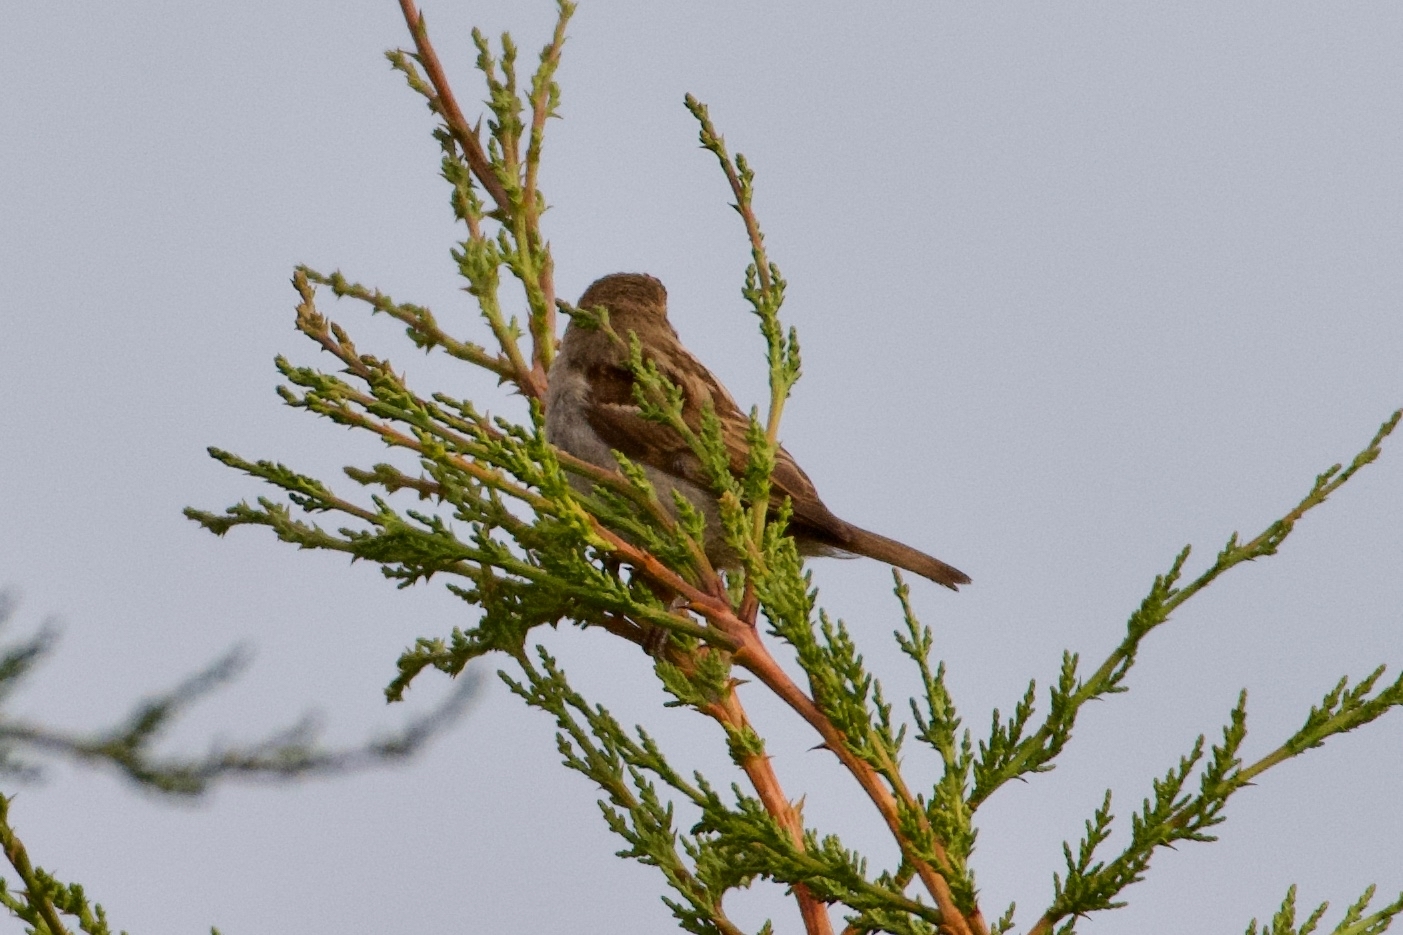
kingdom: Animalia
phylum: Chordata
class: Aves
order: Passeriformes
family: Passeridae
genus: Passer
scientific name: Passer domesticus
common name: House sparrow
